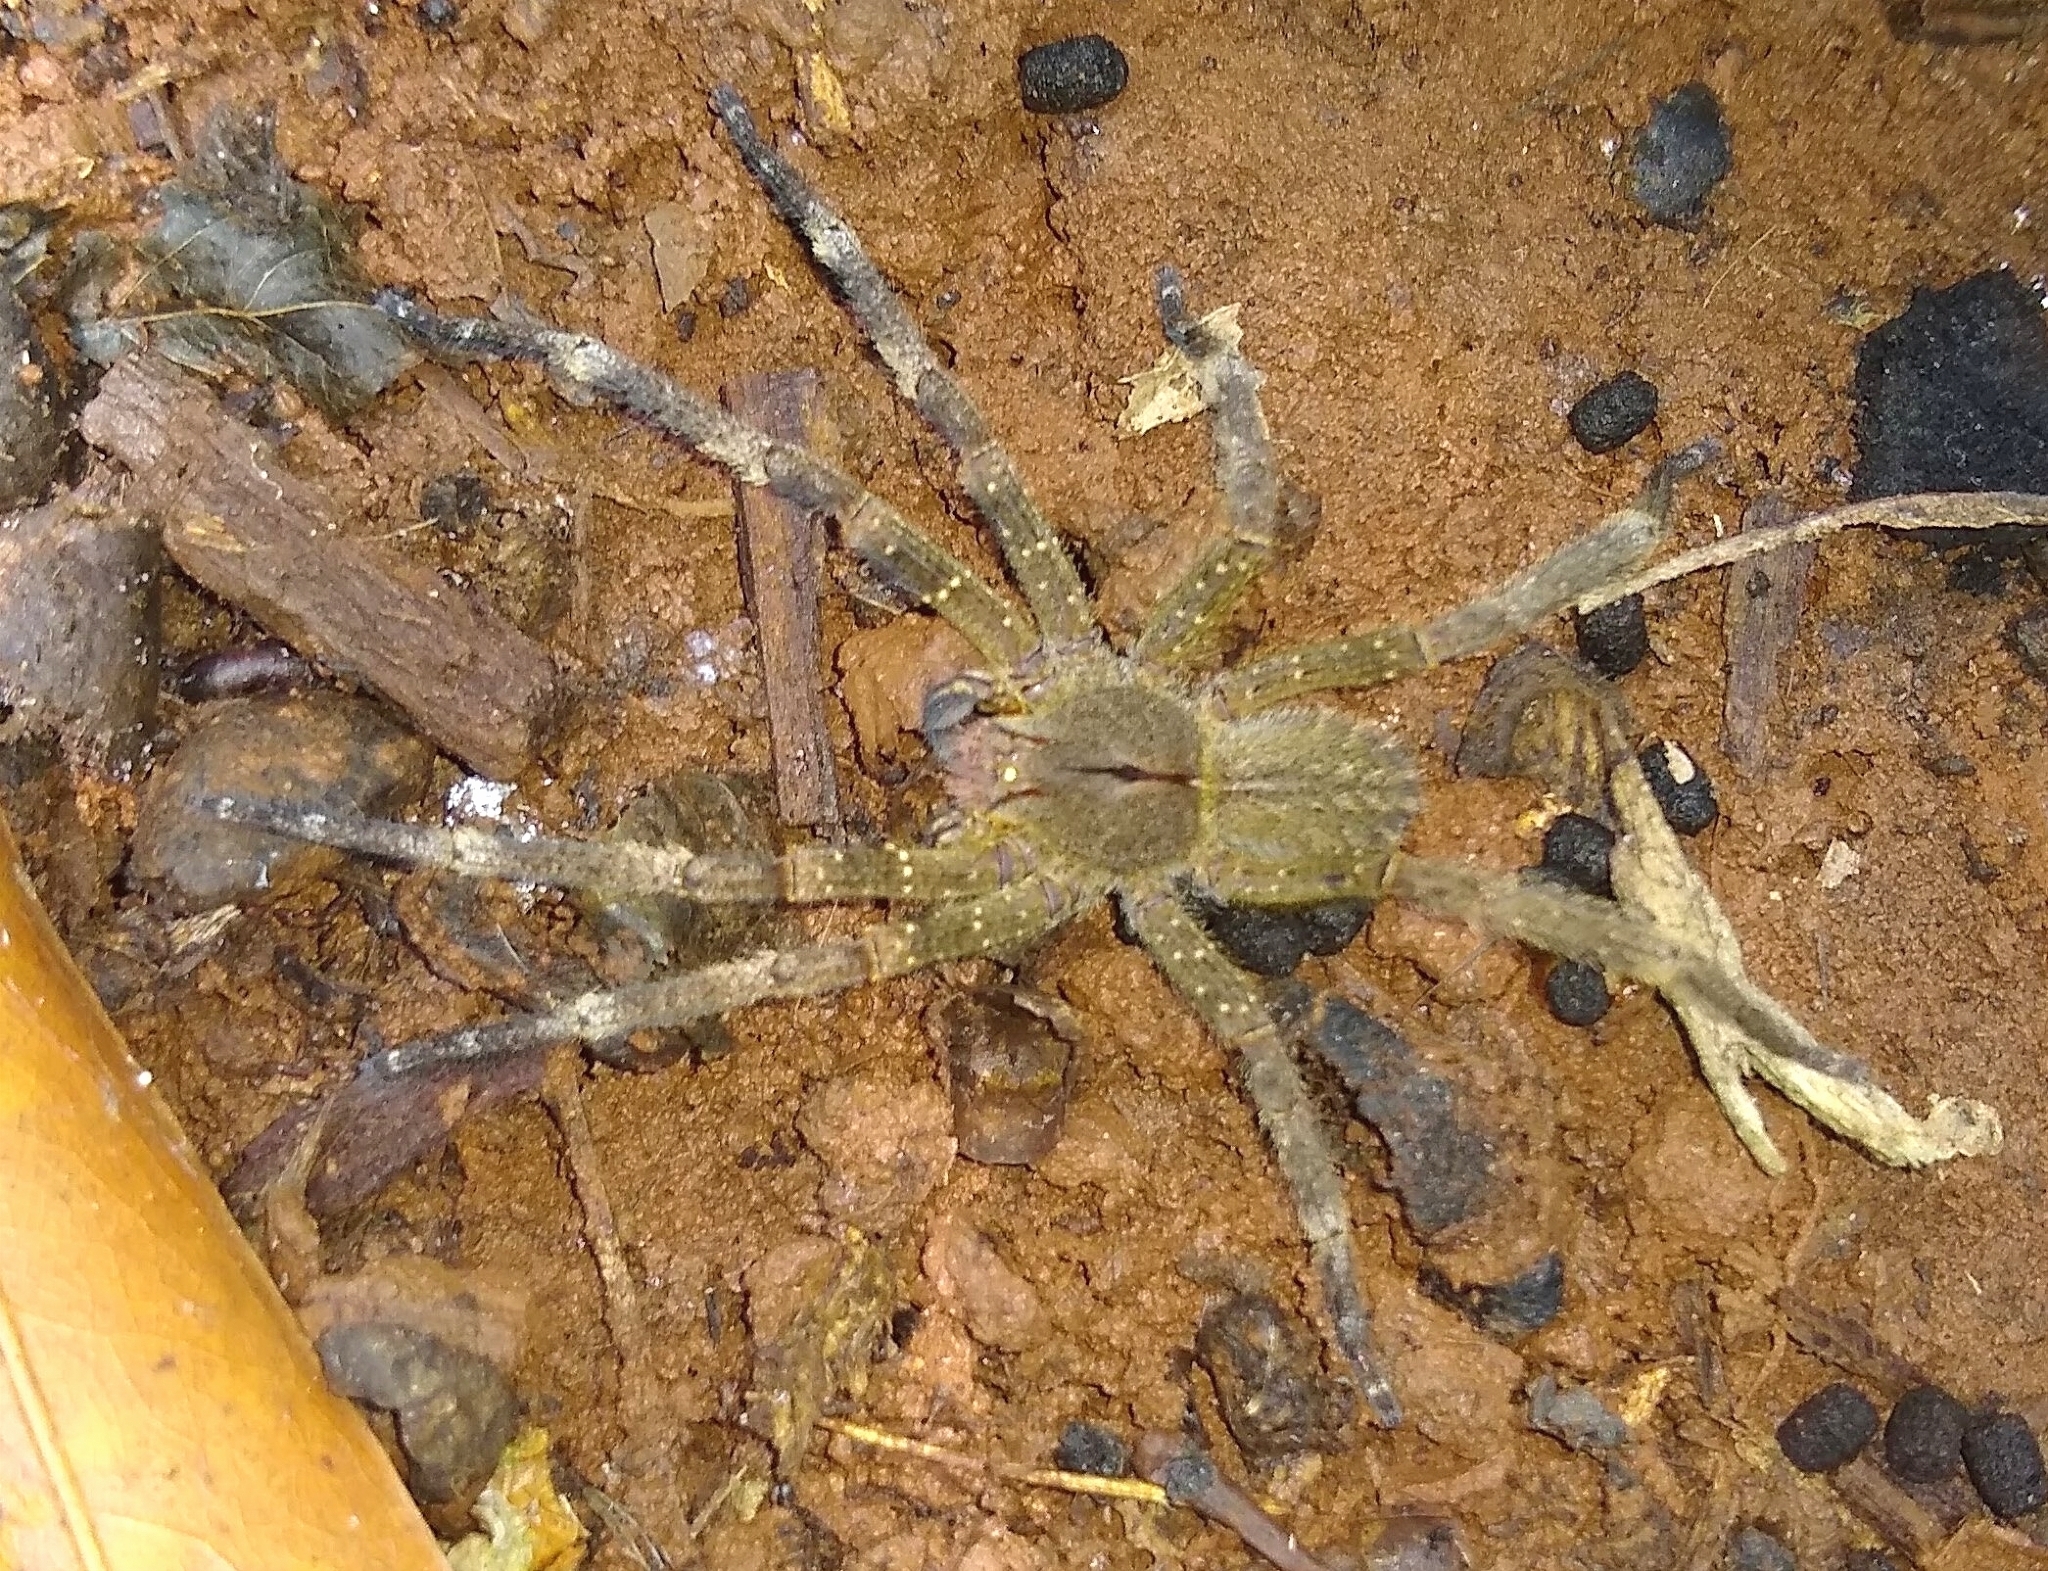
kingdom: Animalia
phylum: Arthropoda
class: Arachnida
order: Araneae
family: Ctenidae
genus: Phoneutria
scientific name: Phoneutria nigriventer
